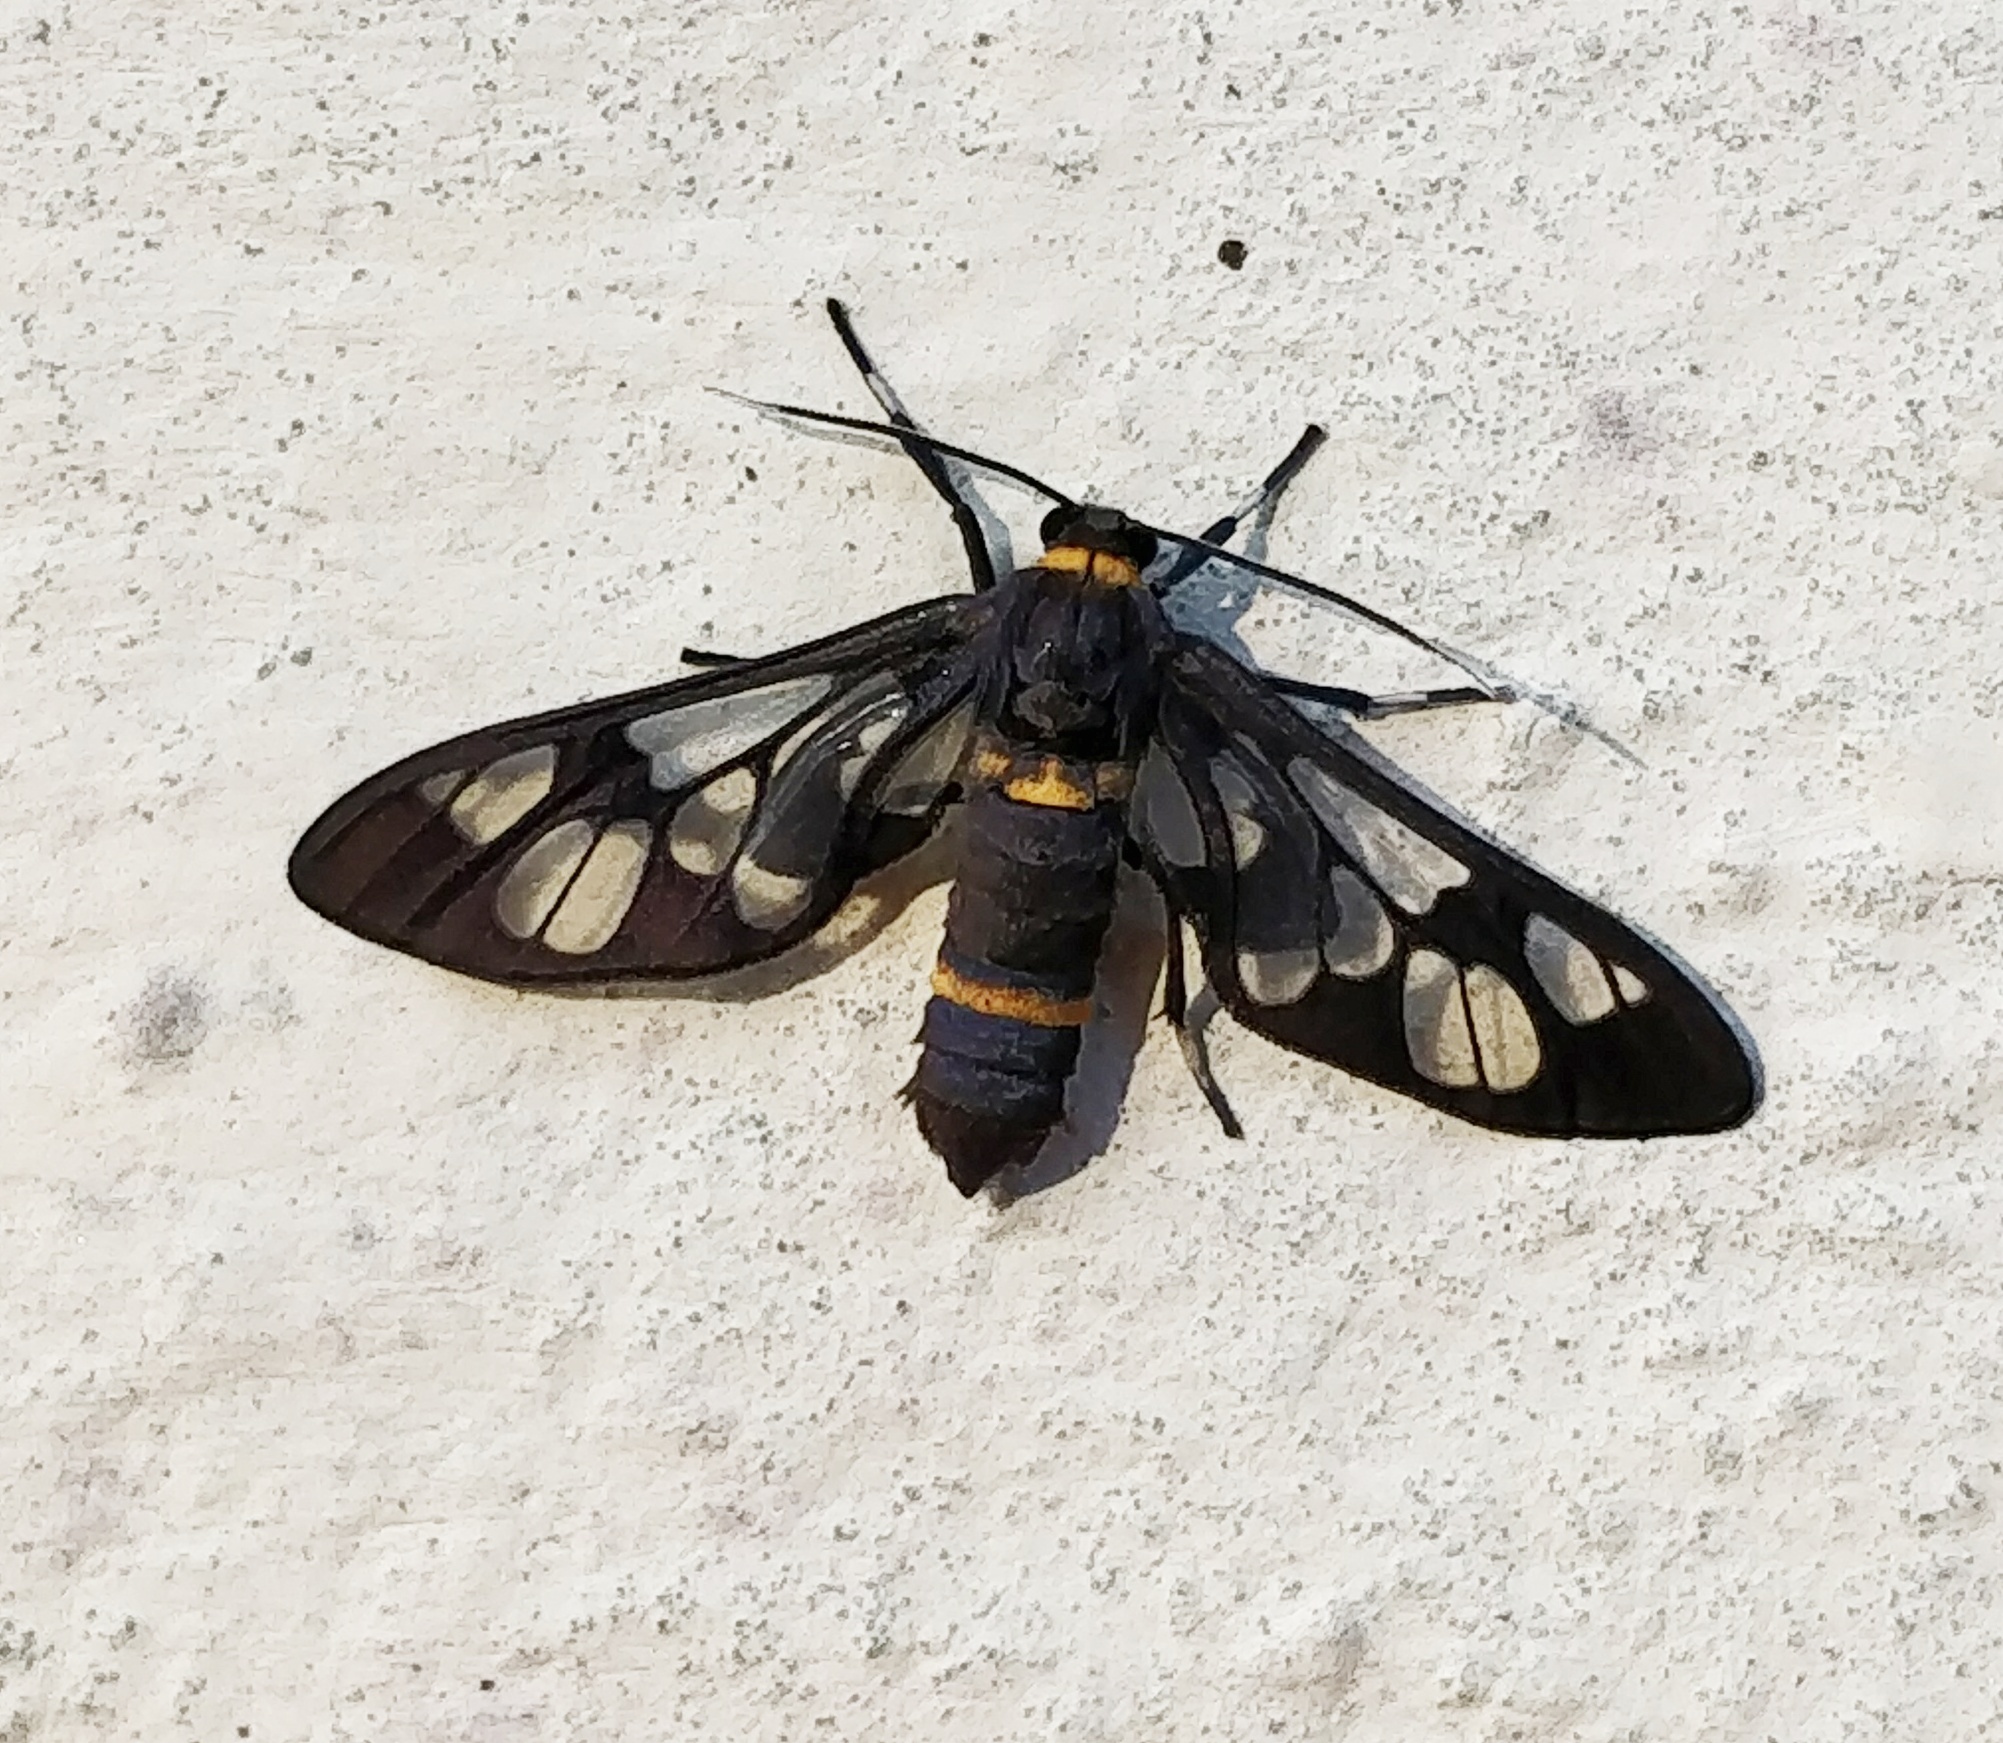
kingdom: Animalia
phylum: Arthropoda
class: Insecta
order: Lepidoptera
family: Erebidae
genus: Syntomoides
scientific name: Syntomoides imaon
